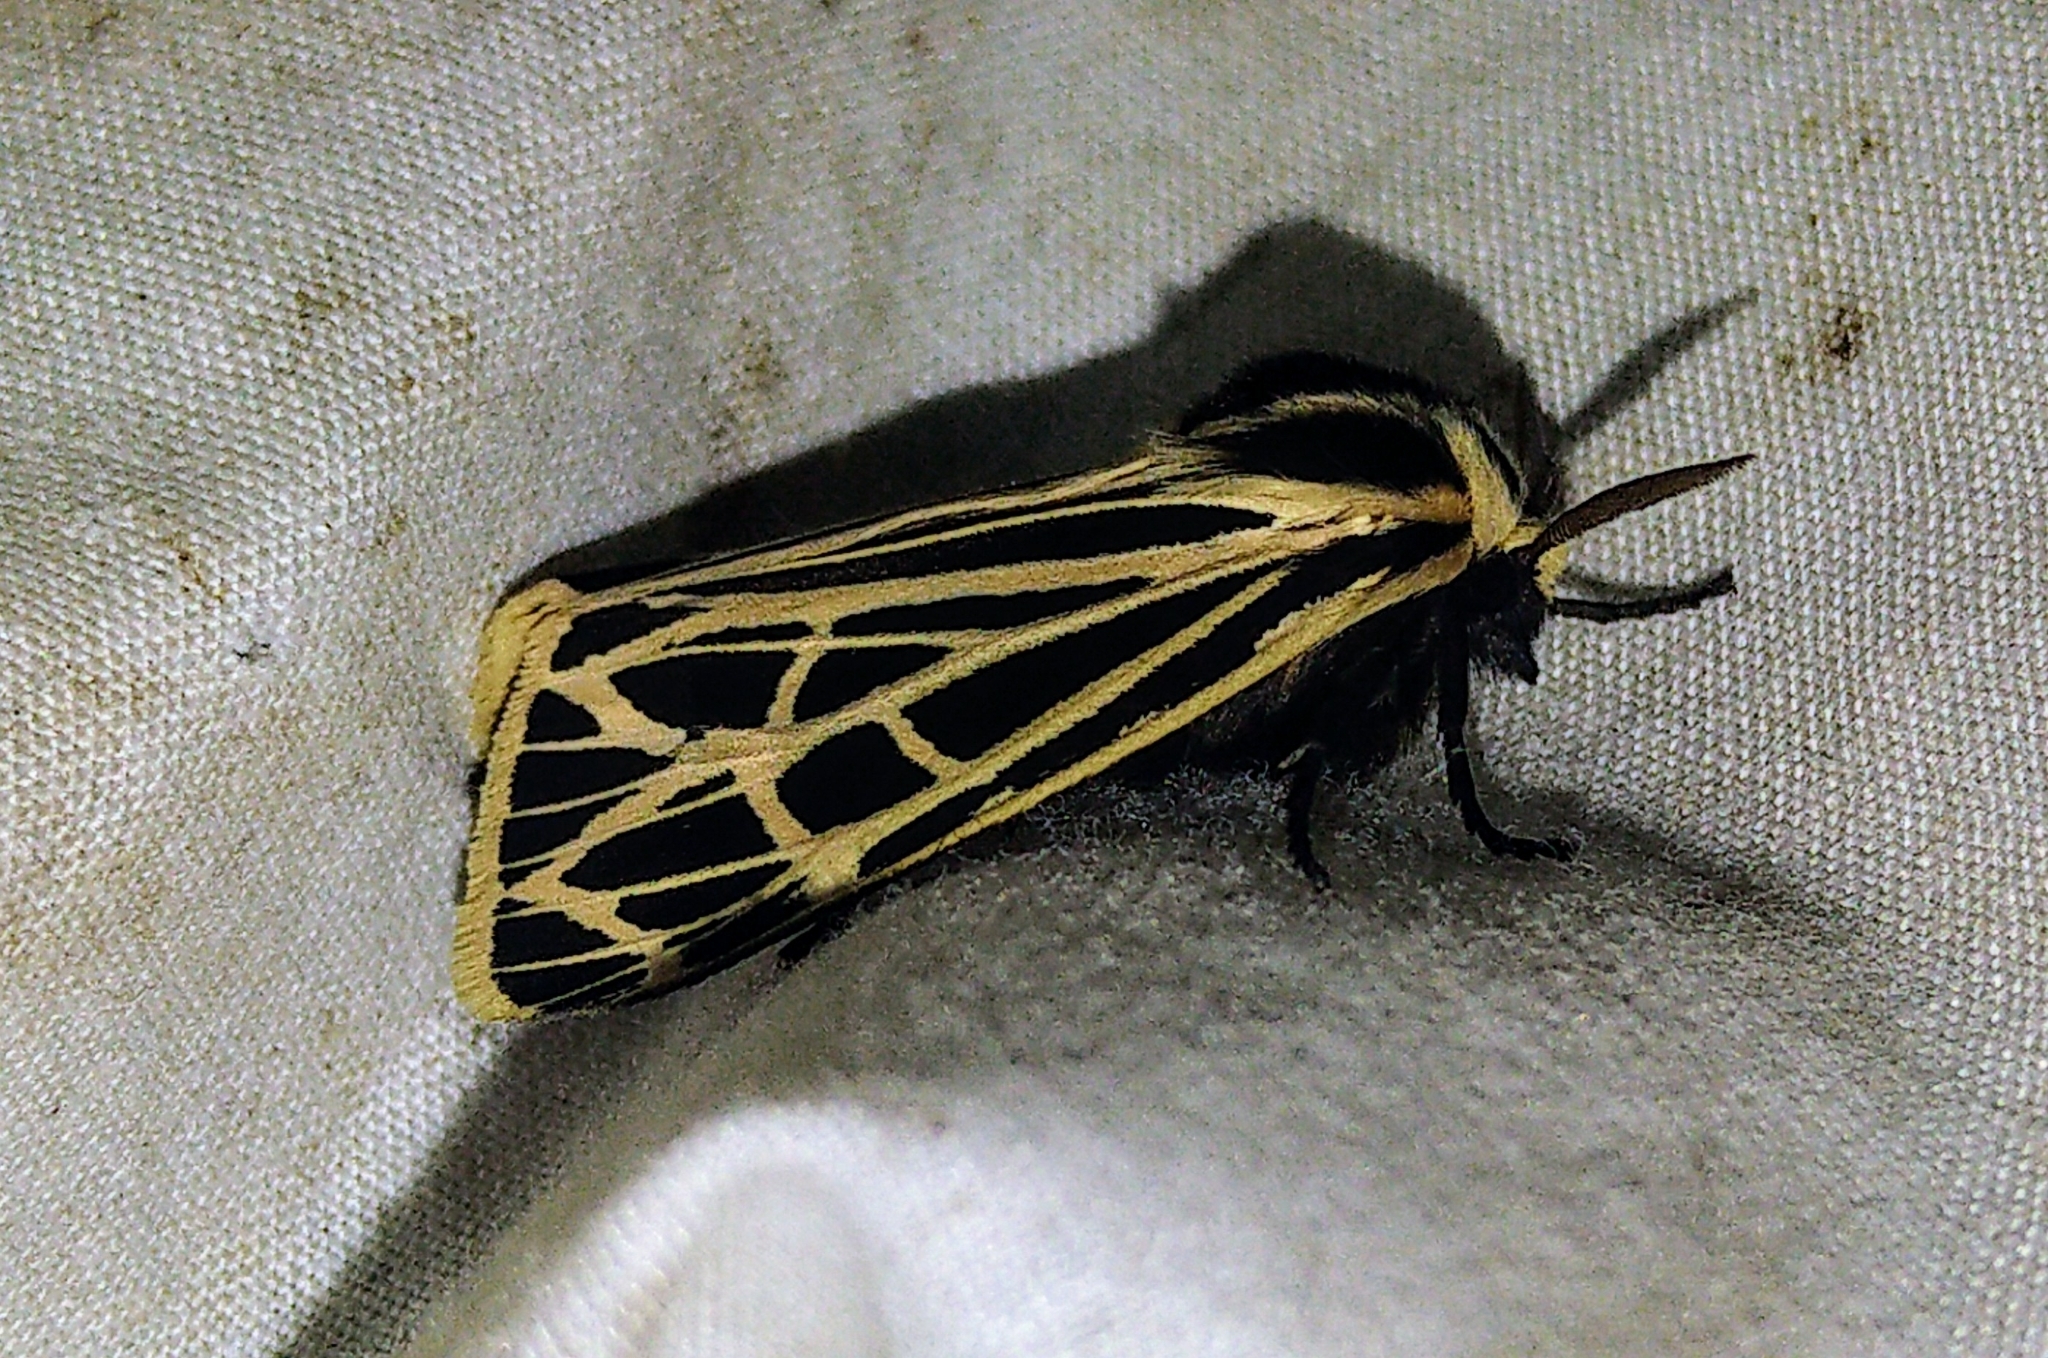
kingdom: Animalia
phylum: Arthropoda
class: Insecta
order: Lepidoptera
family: Erebidae
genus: Grammia
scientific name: Grammia virgo
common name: Virgin tiger moth
